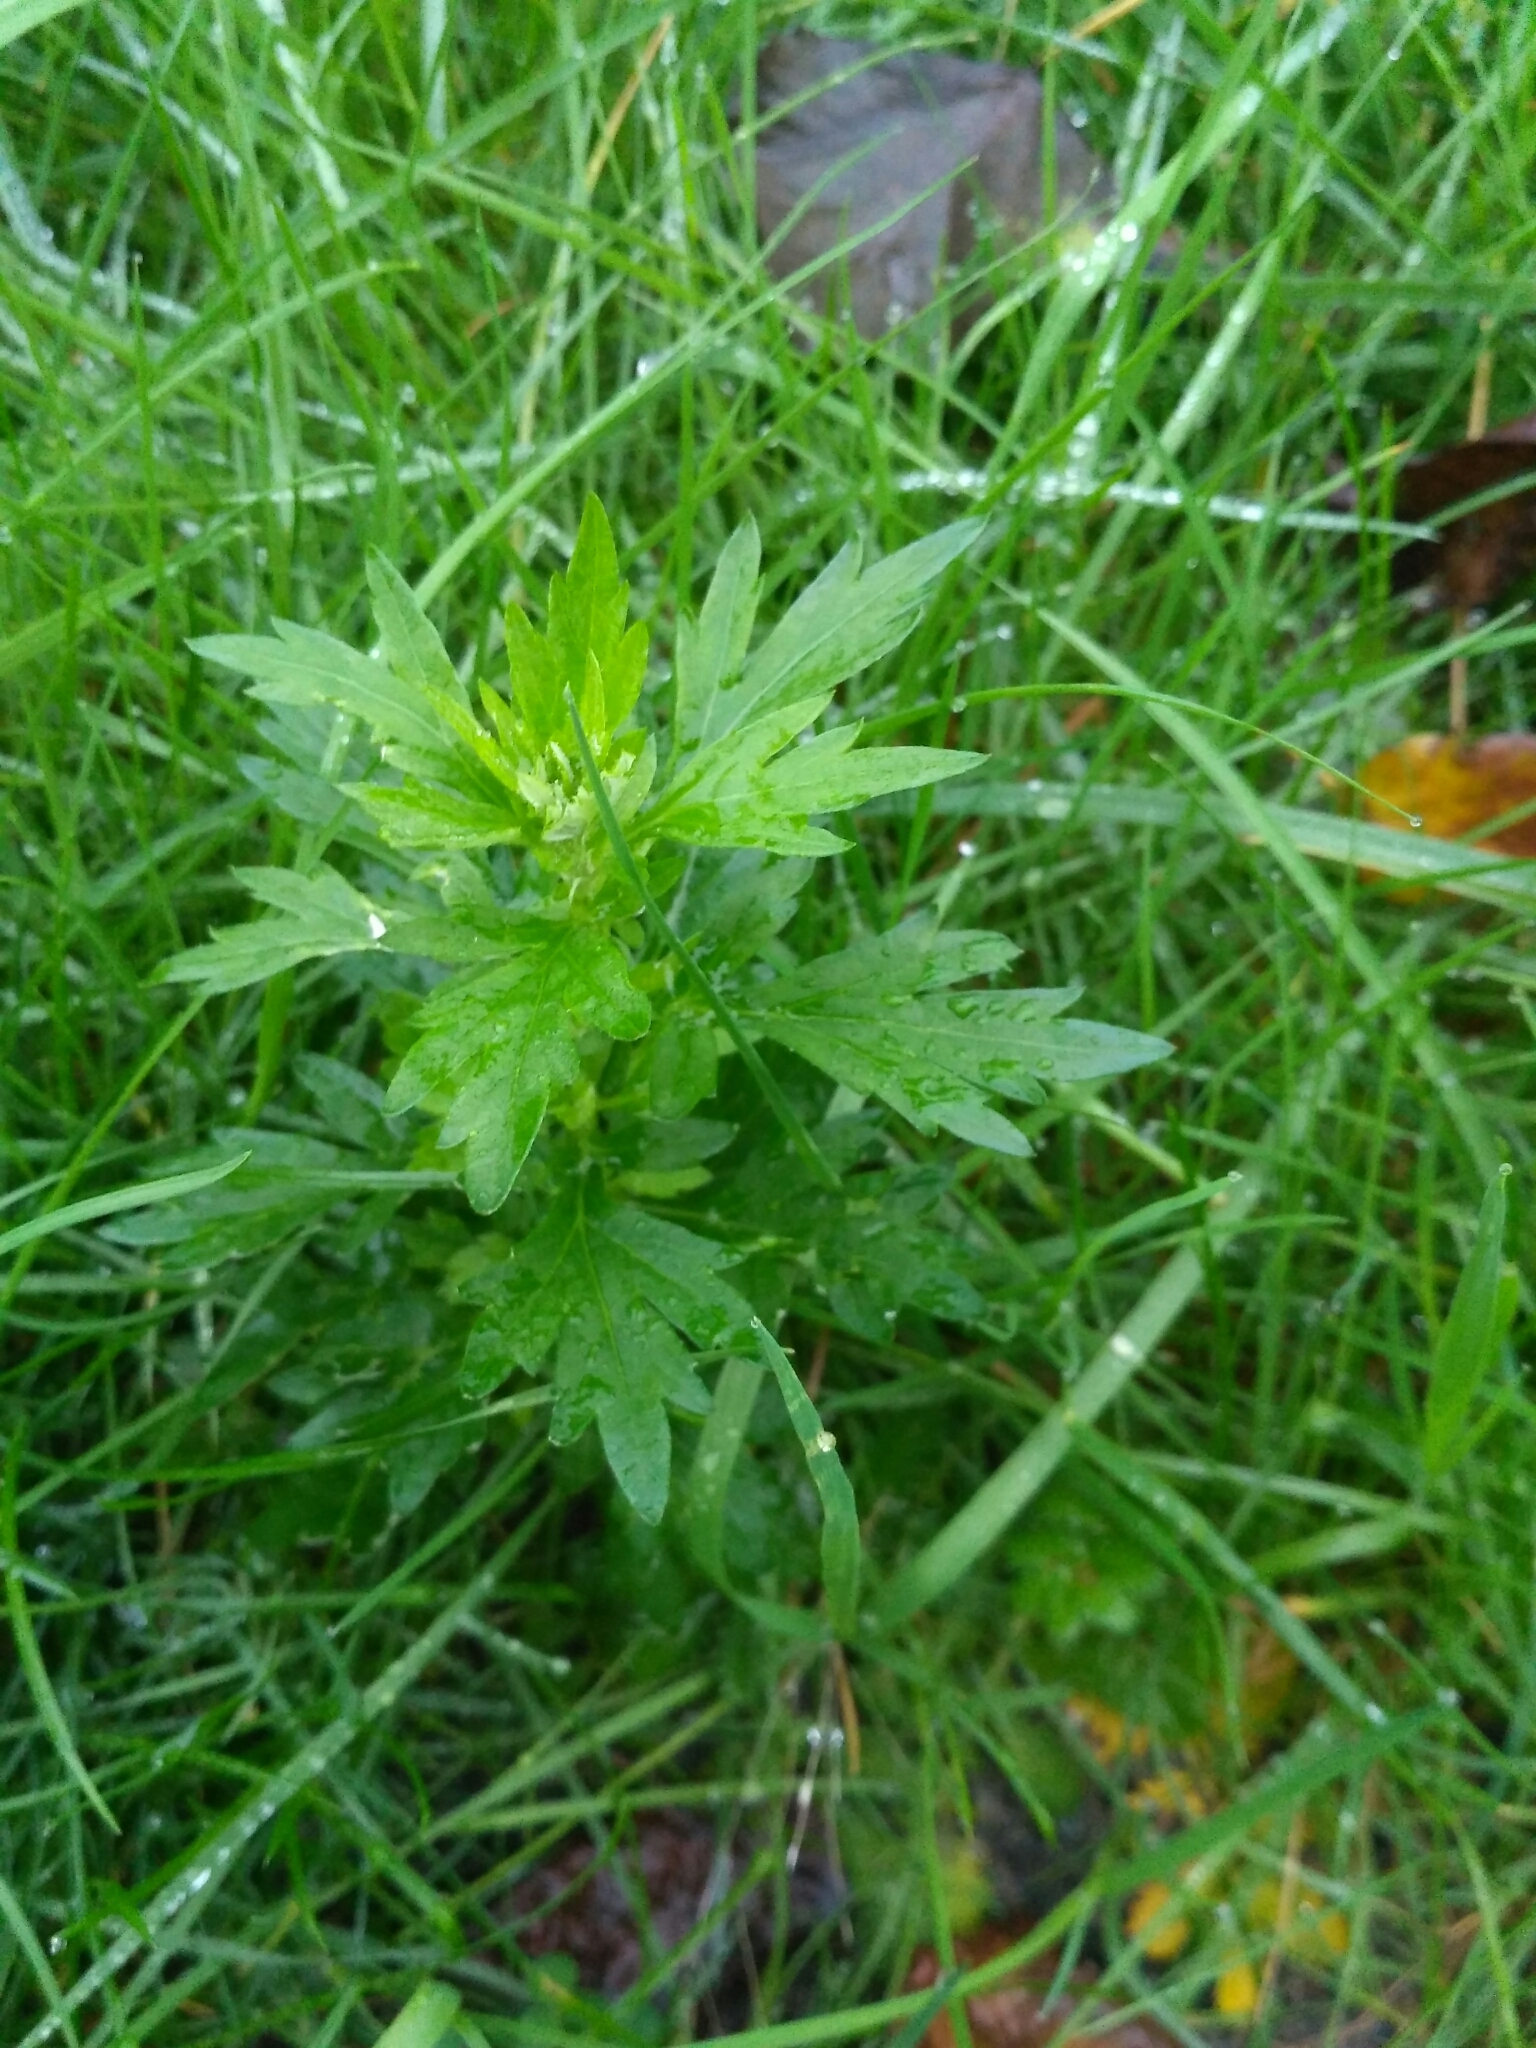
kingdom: Plantae
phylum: Tracheophyta
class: Magnoliopsida
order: Asterales
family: Asteraceae
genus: Artemisia
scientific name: Artemisia vulgaris
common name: Mugwort
